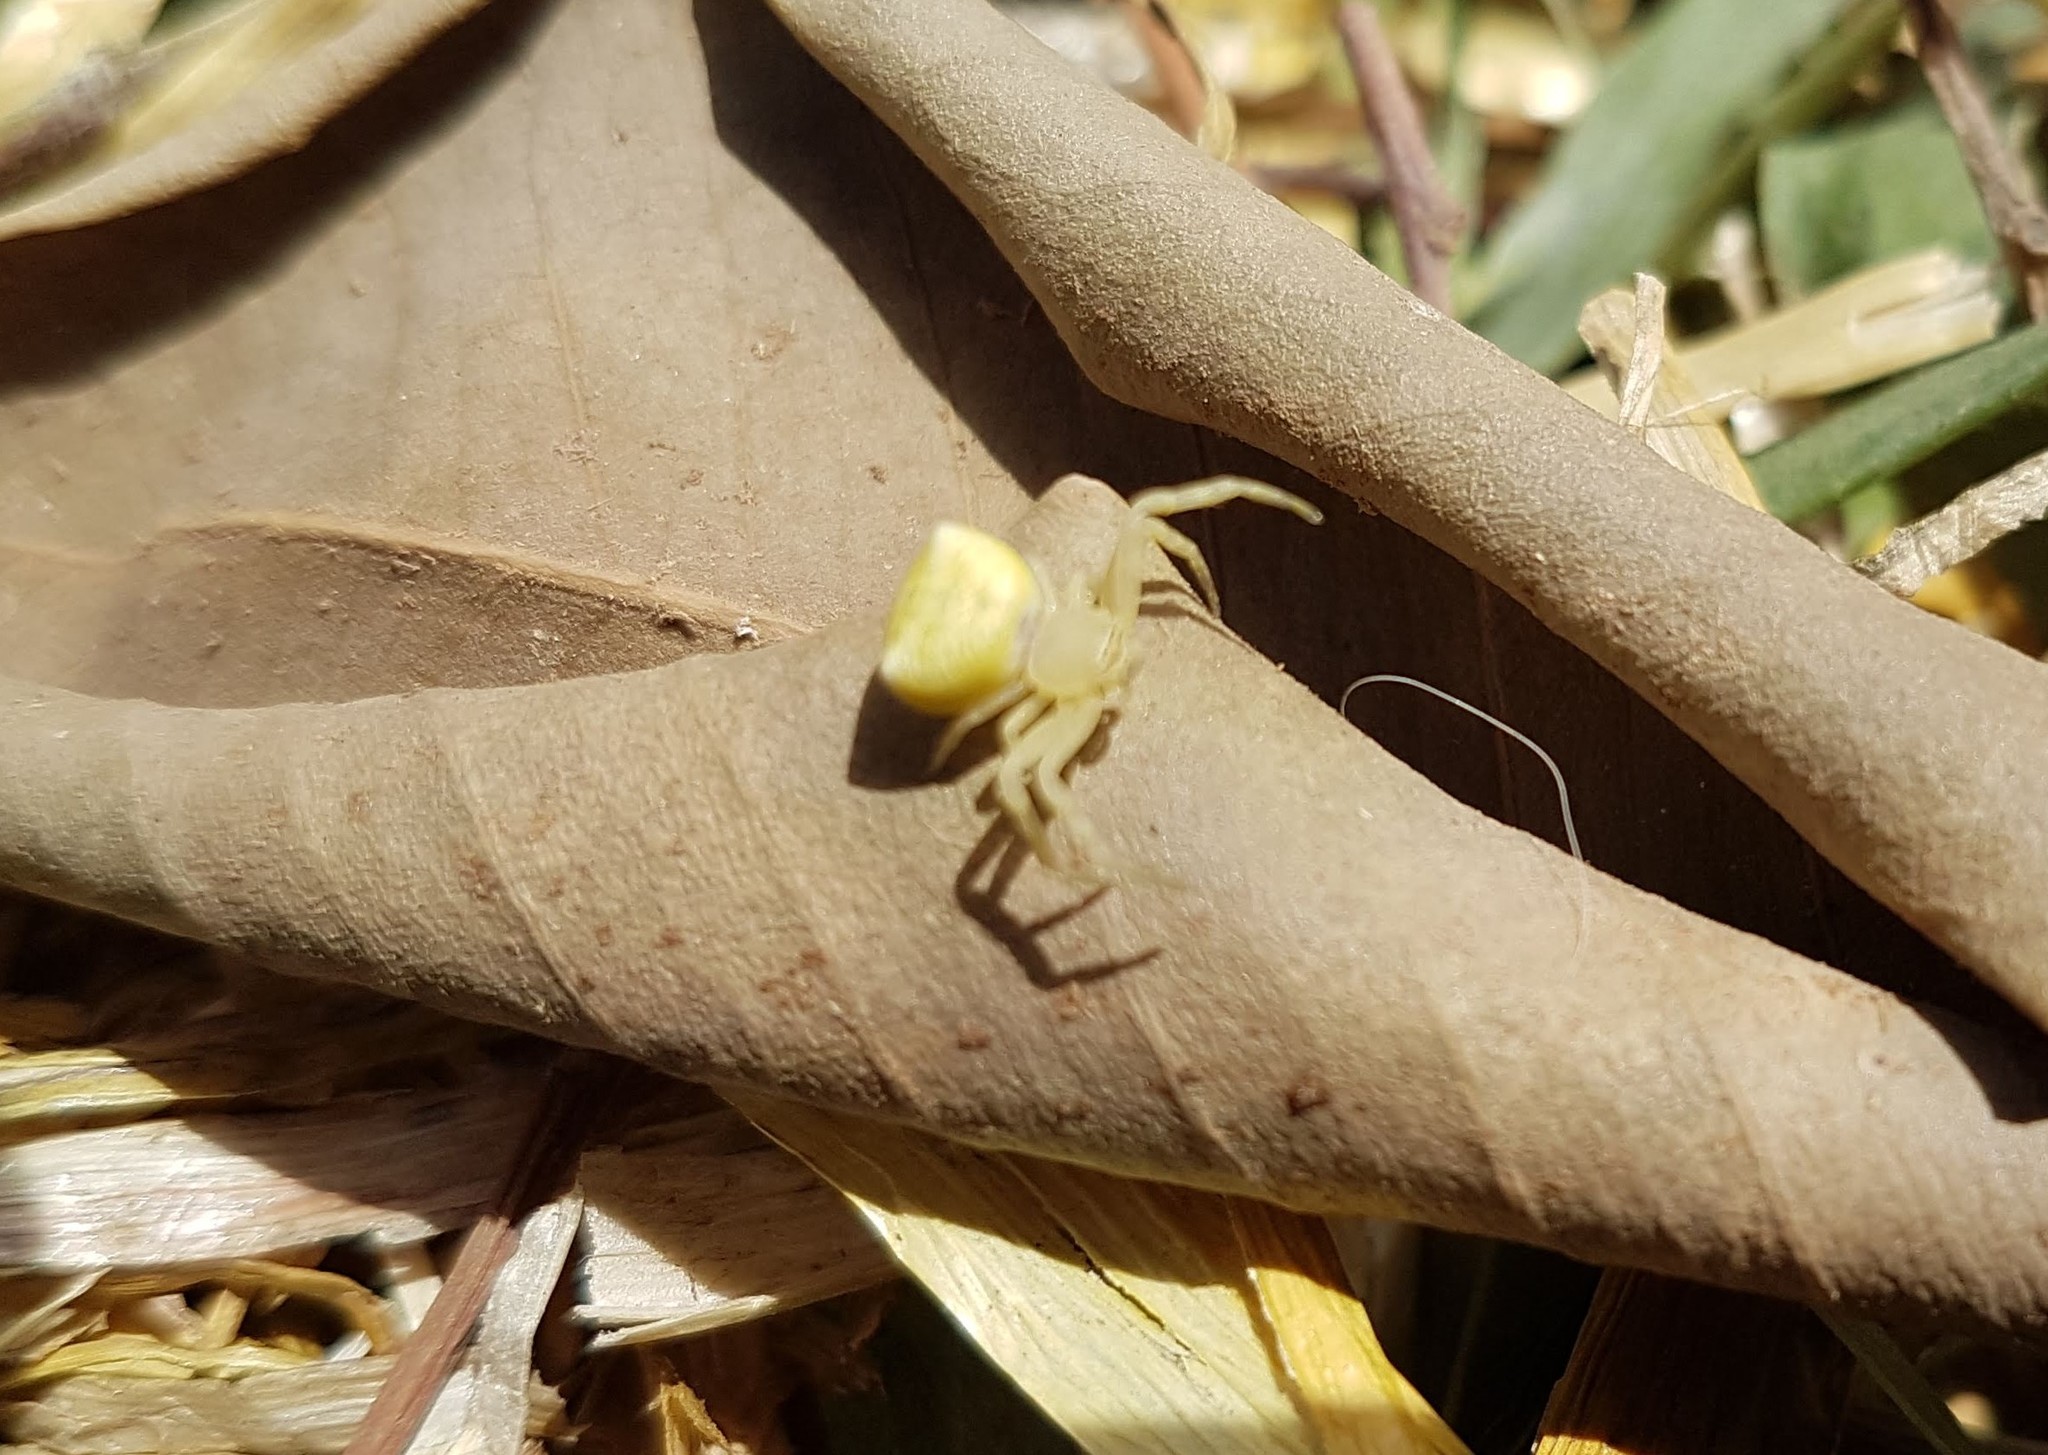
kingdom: Animalia
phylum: Arthropoda
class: Arachnida
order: Araneae
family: Thomisidae
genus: Thomisus
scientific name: Thomisus onustus
